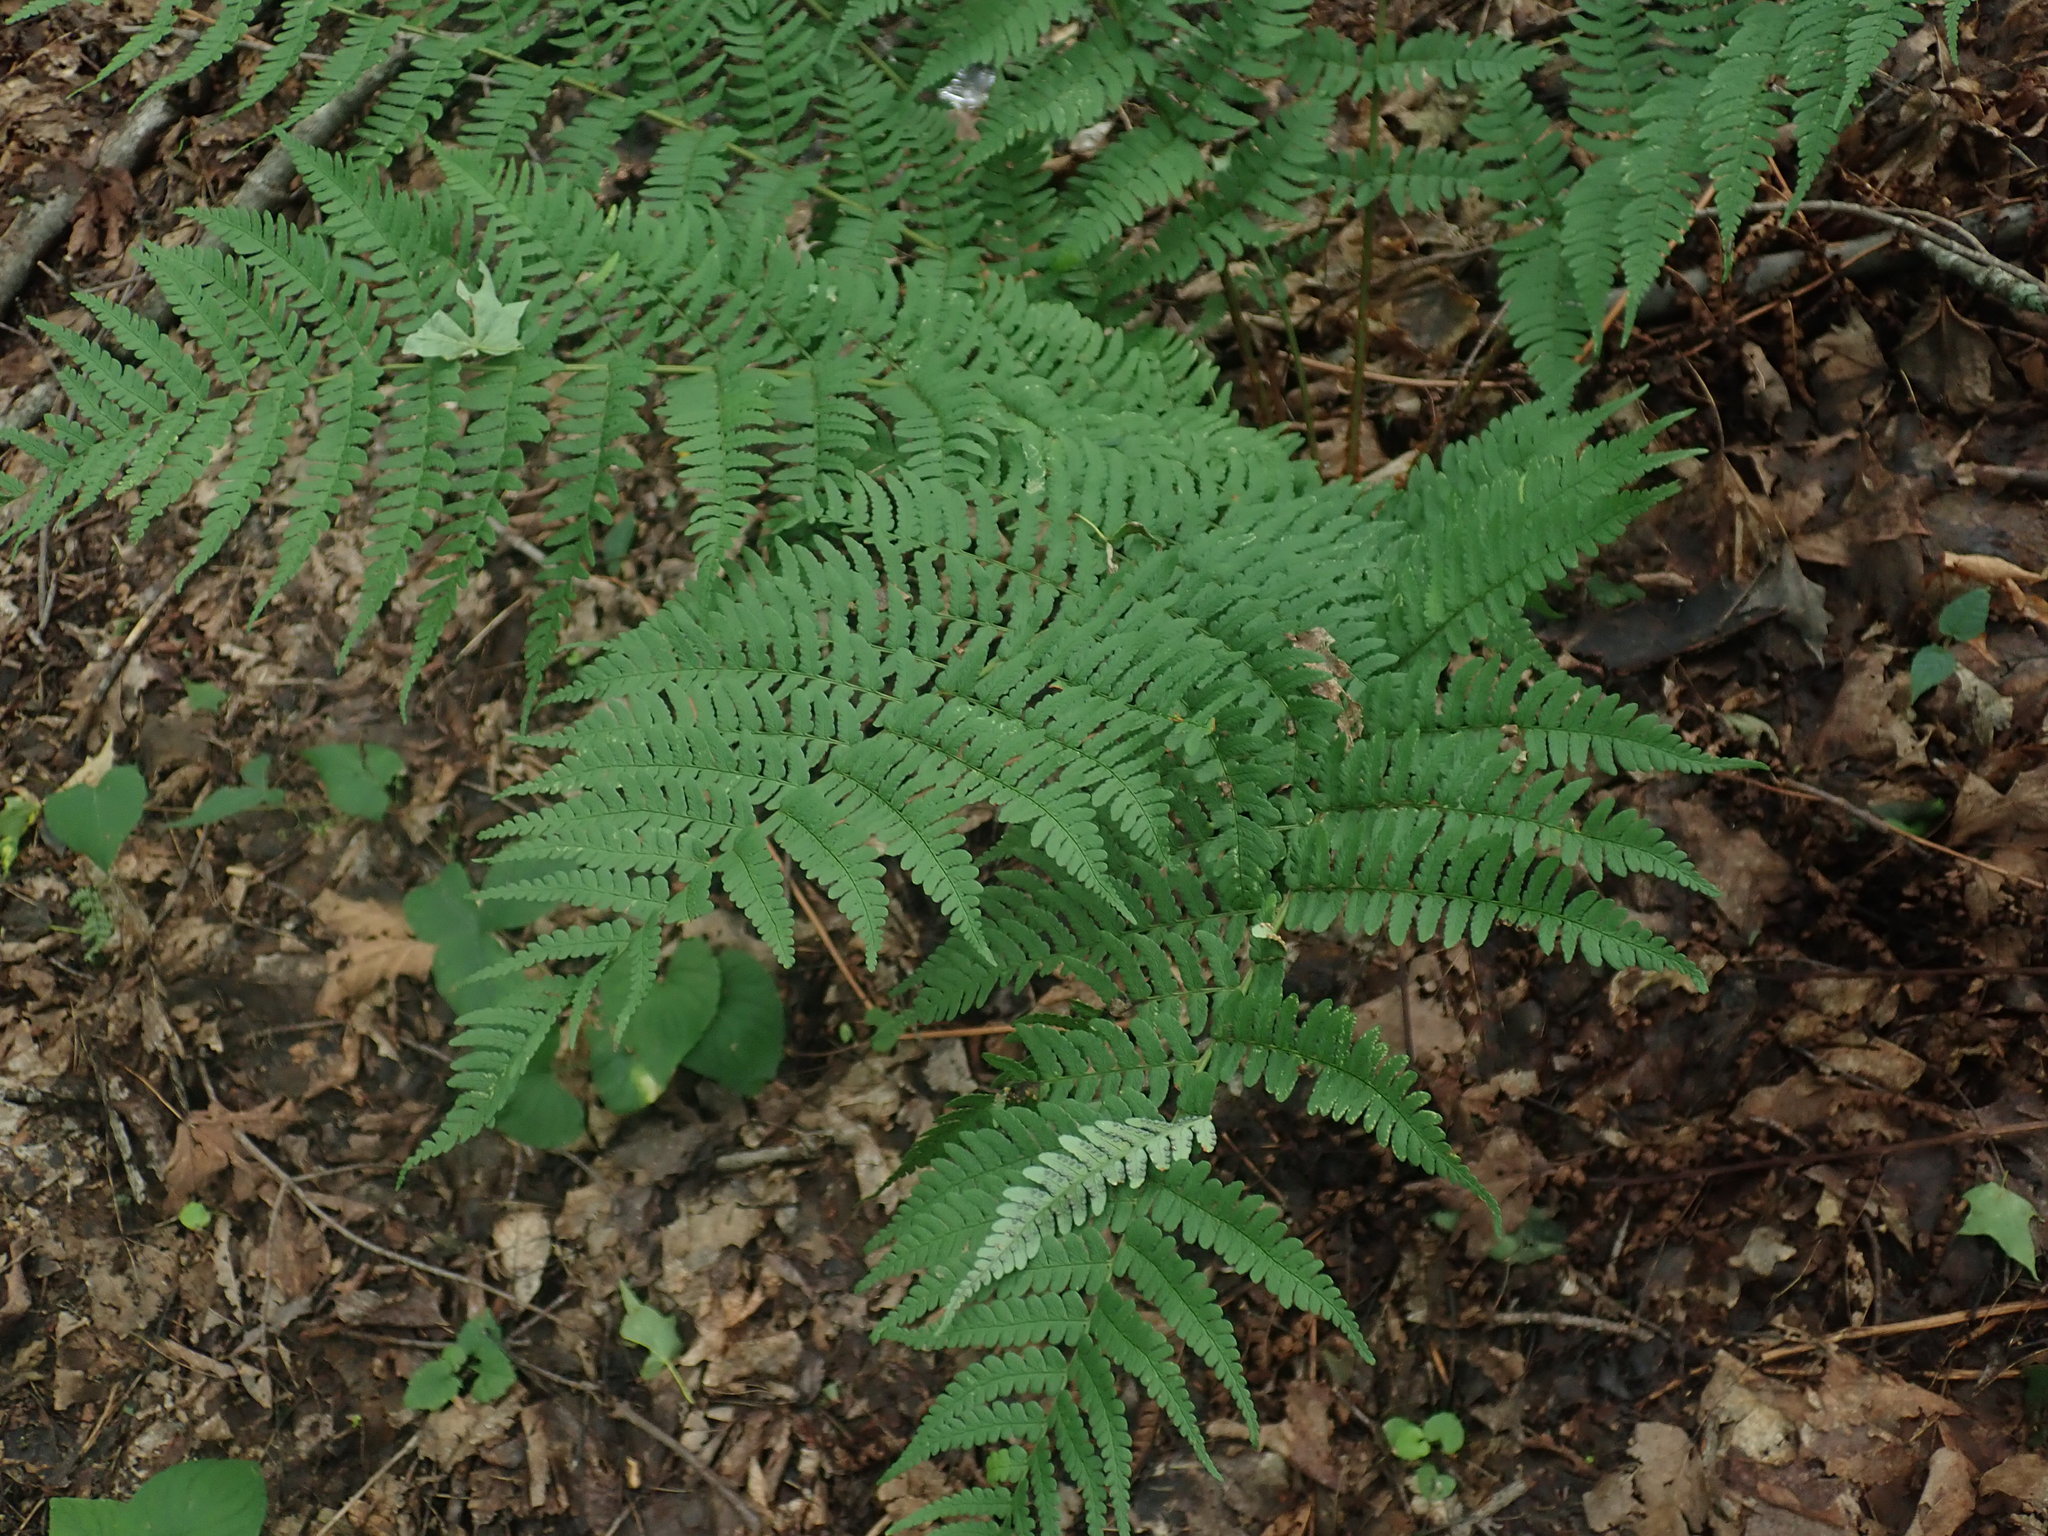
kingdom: Plantae
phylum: Tracheophyta
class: Polypodiopsida
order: Polypodiales
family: Dryopteridaceae
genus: Dryopteris
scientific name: Dryopteris marginalis
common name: Marginal wood fern
